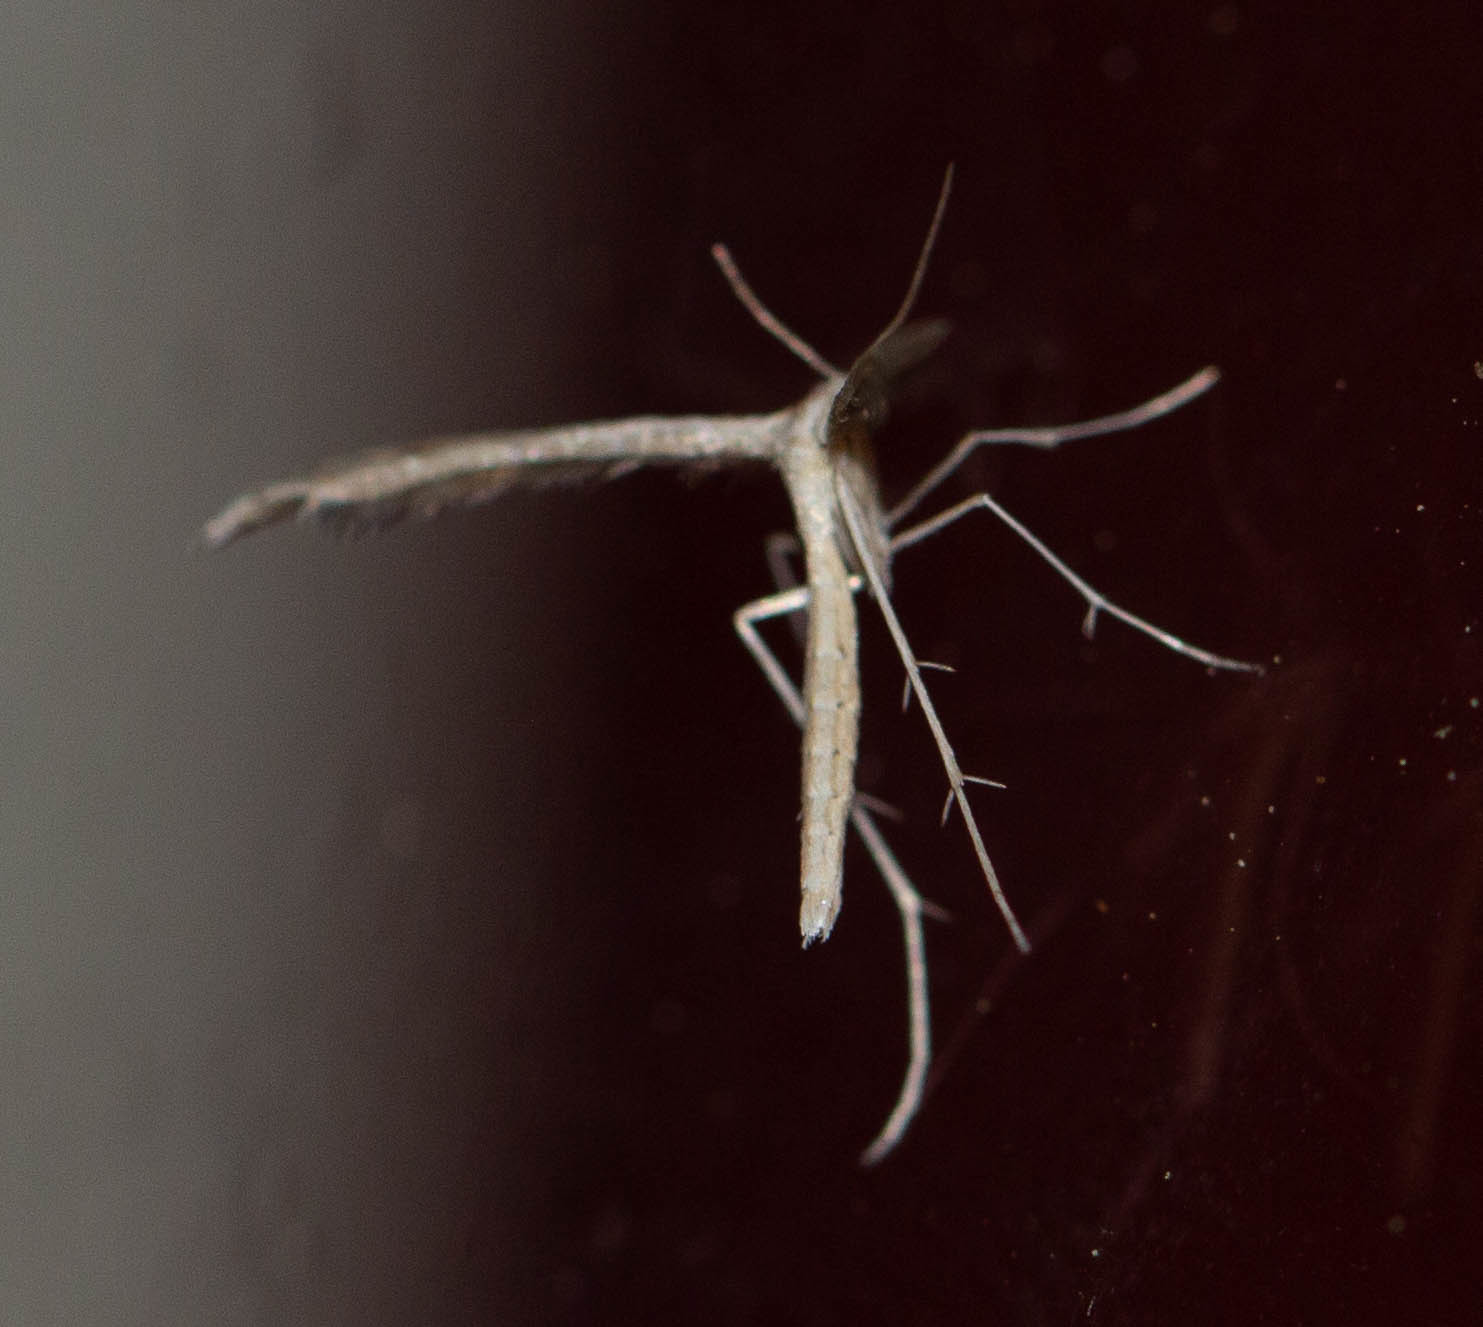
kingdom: Animalia
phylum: Arthropoda
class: Insecta
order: Lepidoptera
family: Pterophoridae
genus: Lioptilodes
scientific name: Lioptilodes albistriolatus
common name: Moth
